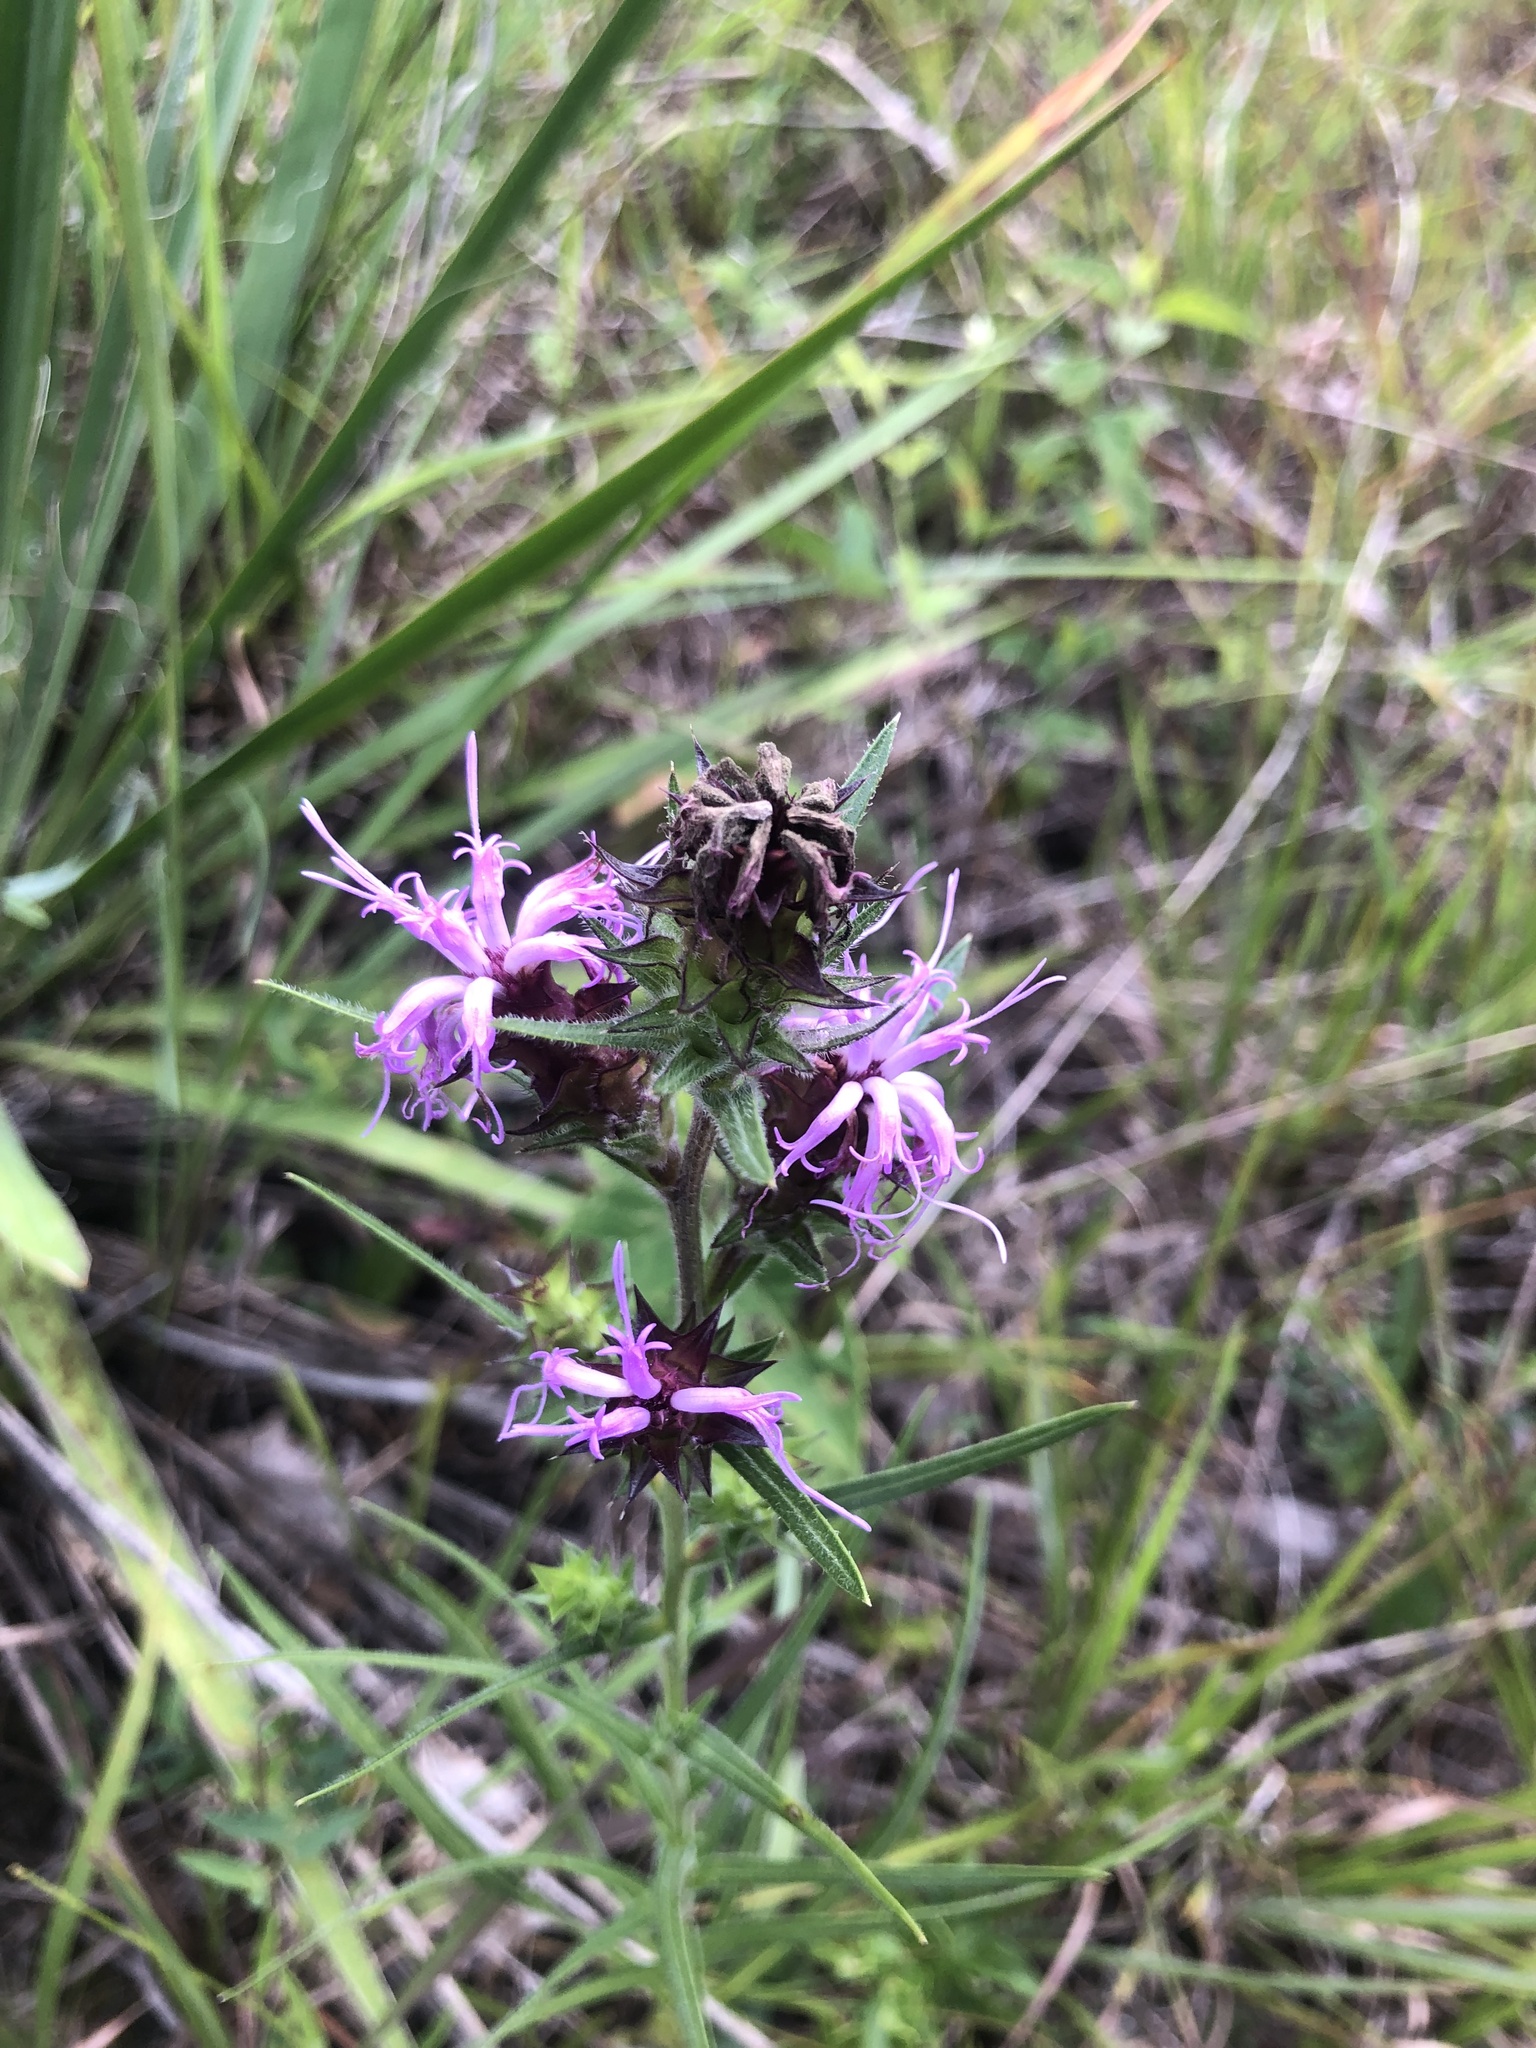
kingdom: Plantae
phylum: Tracheophyta
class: Magnoliopsida
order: Asterales
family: Asteraceae
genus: Liatris
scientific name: Liatris squarrosa
